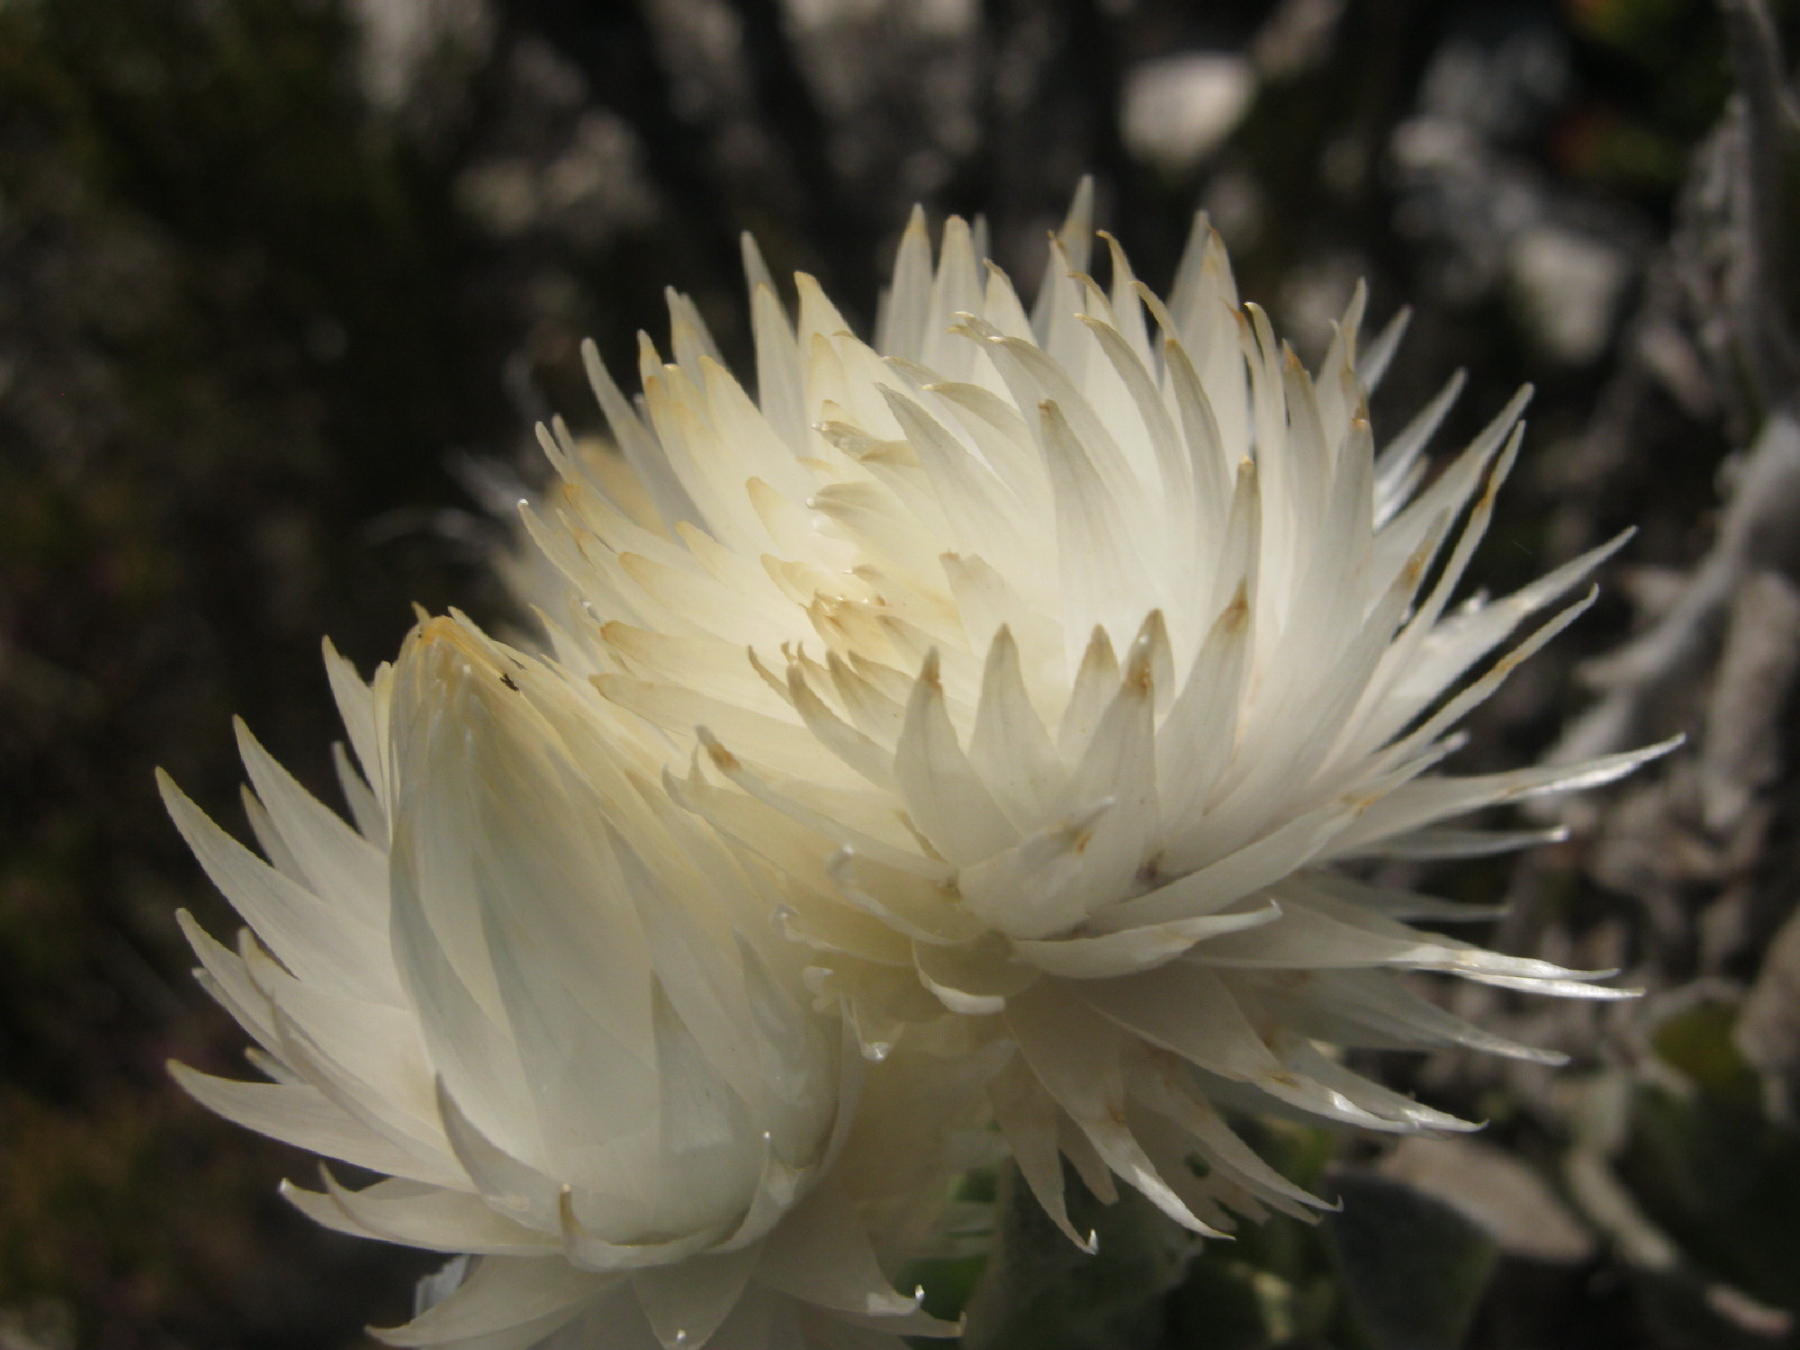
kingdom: Plantae
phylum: Tracheophyta
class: Magnoliopsida
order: Asterales
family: Asteraceae
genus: Syncarpha
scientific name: Syncarpha vestita
